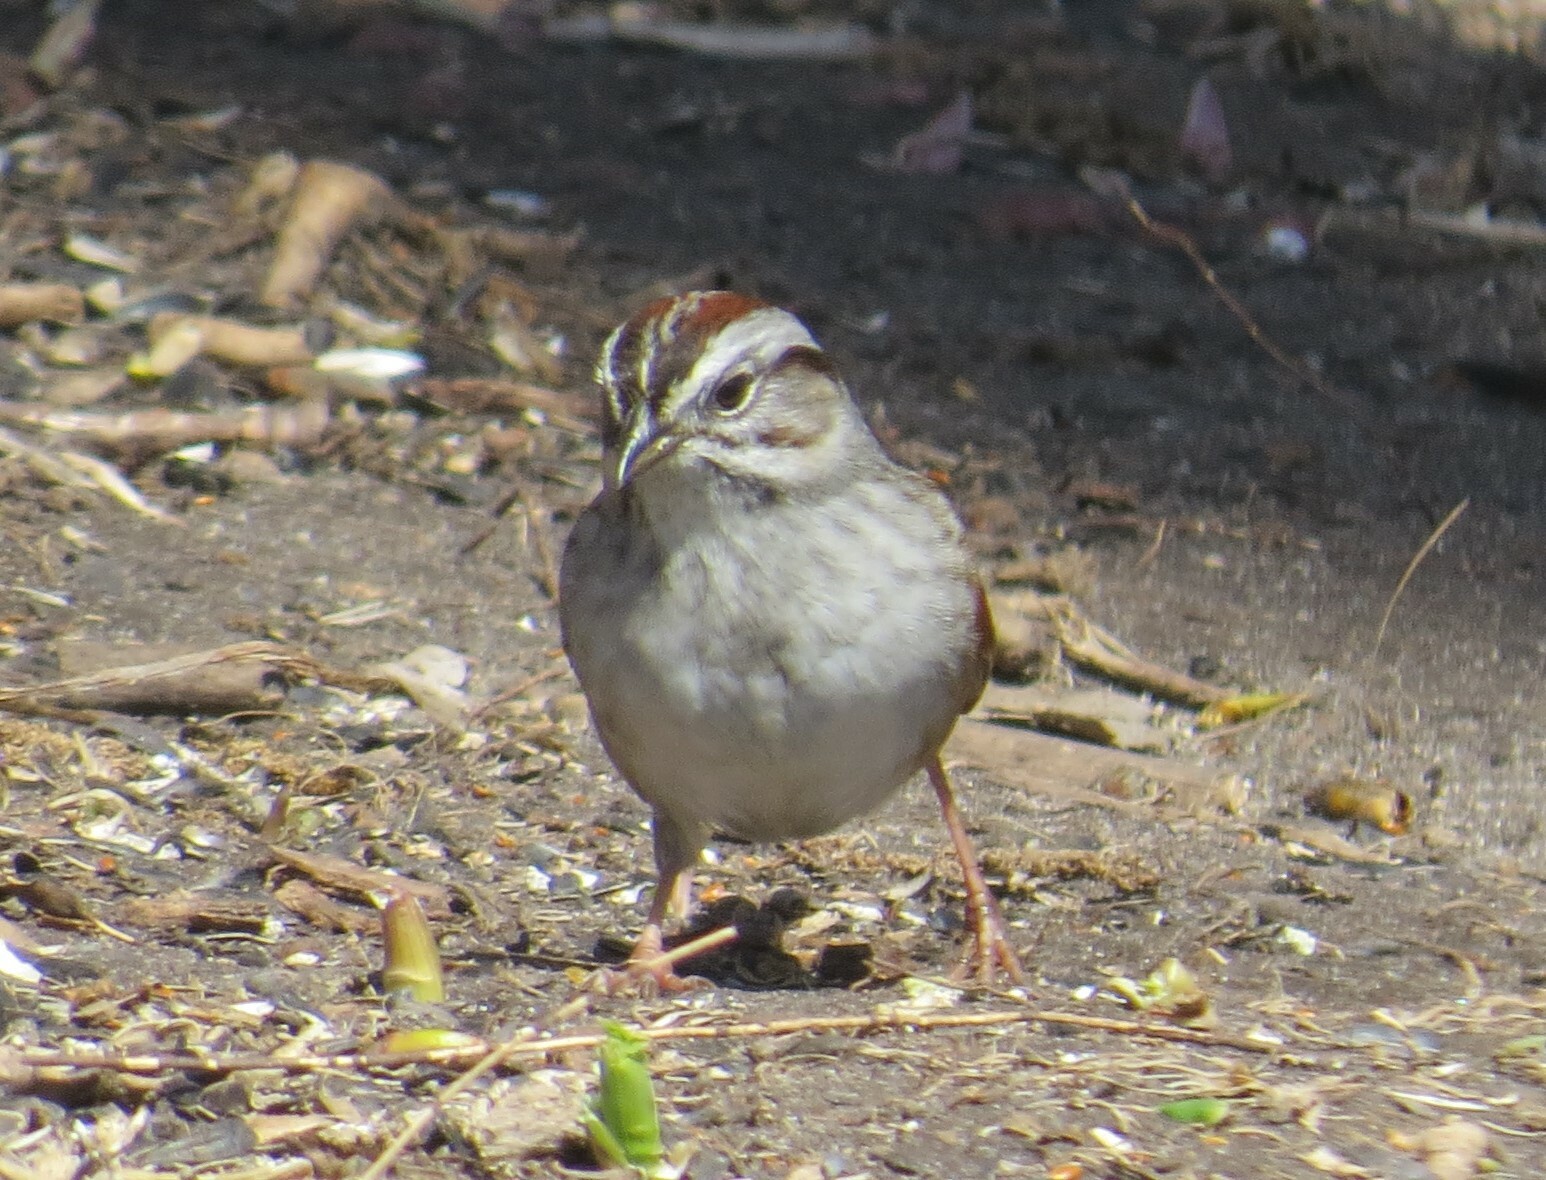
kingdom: Animalia
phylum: Chordata
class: Aves
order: Passeriformes
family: Passerellidae
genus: Melospiza
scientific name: Melospiza georgiana
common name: Swamp sparrow
